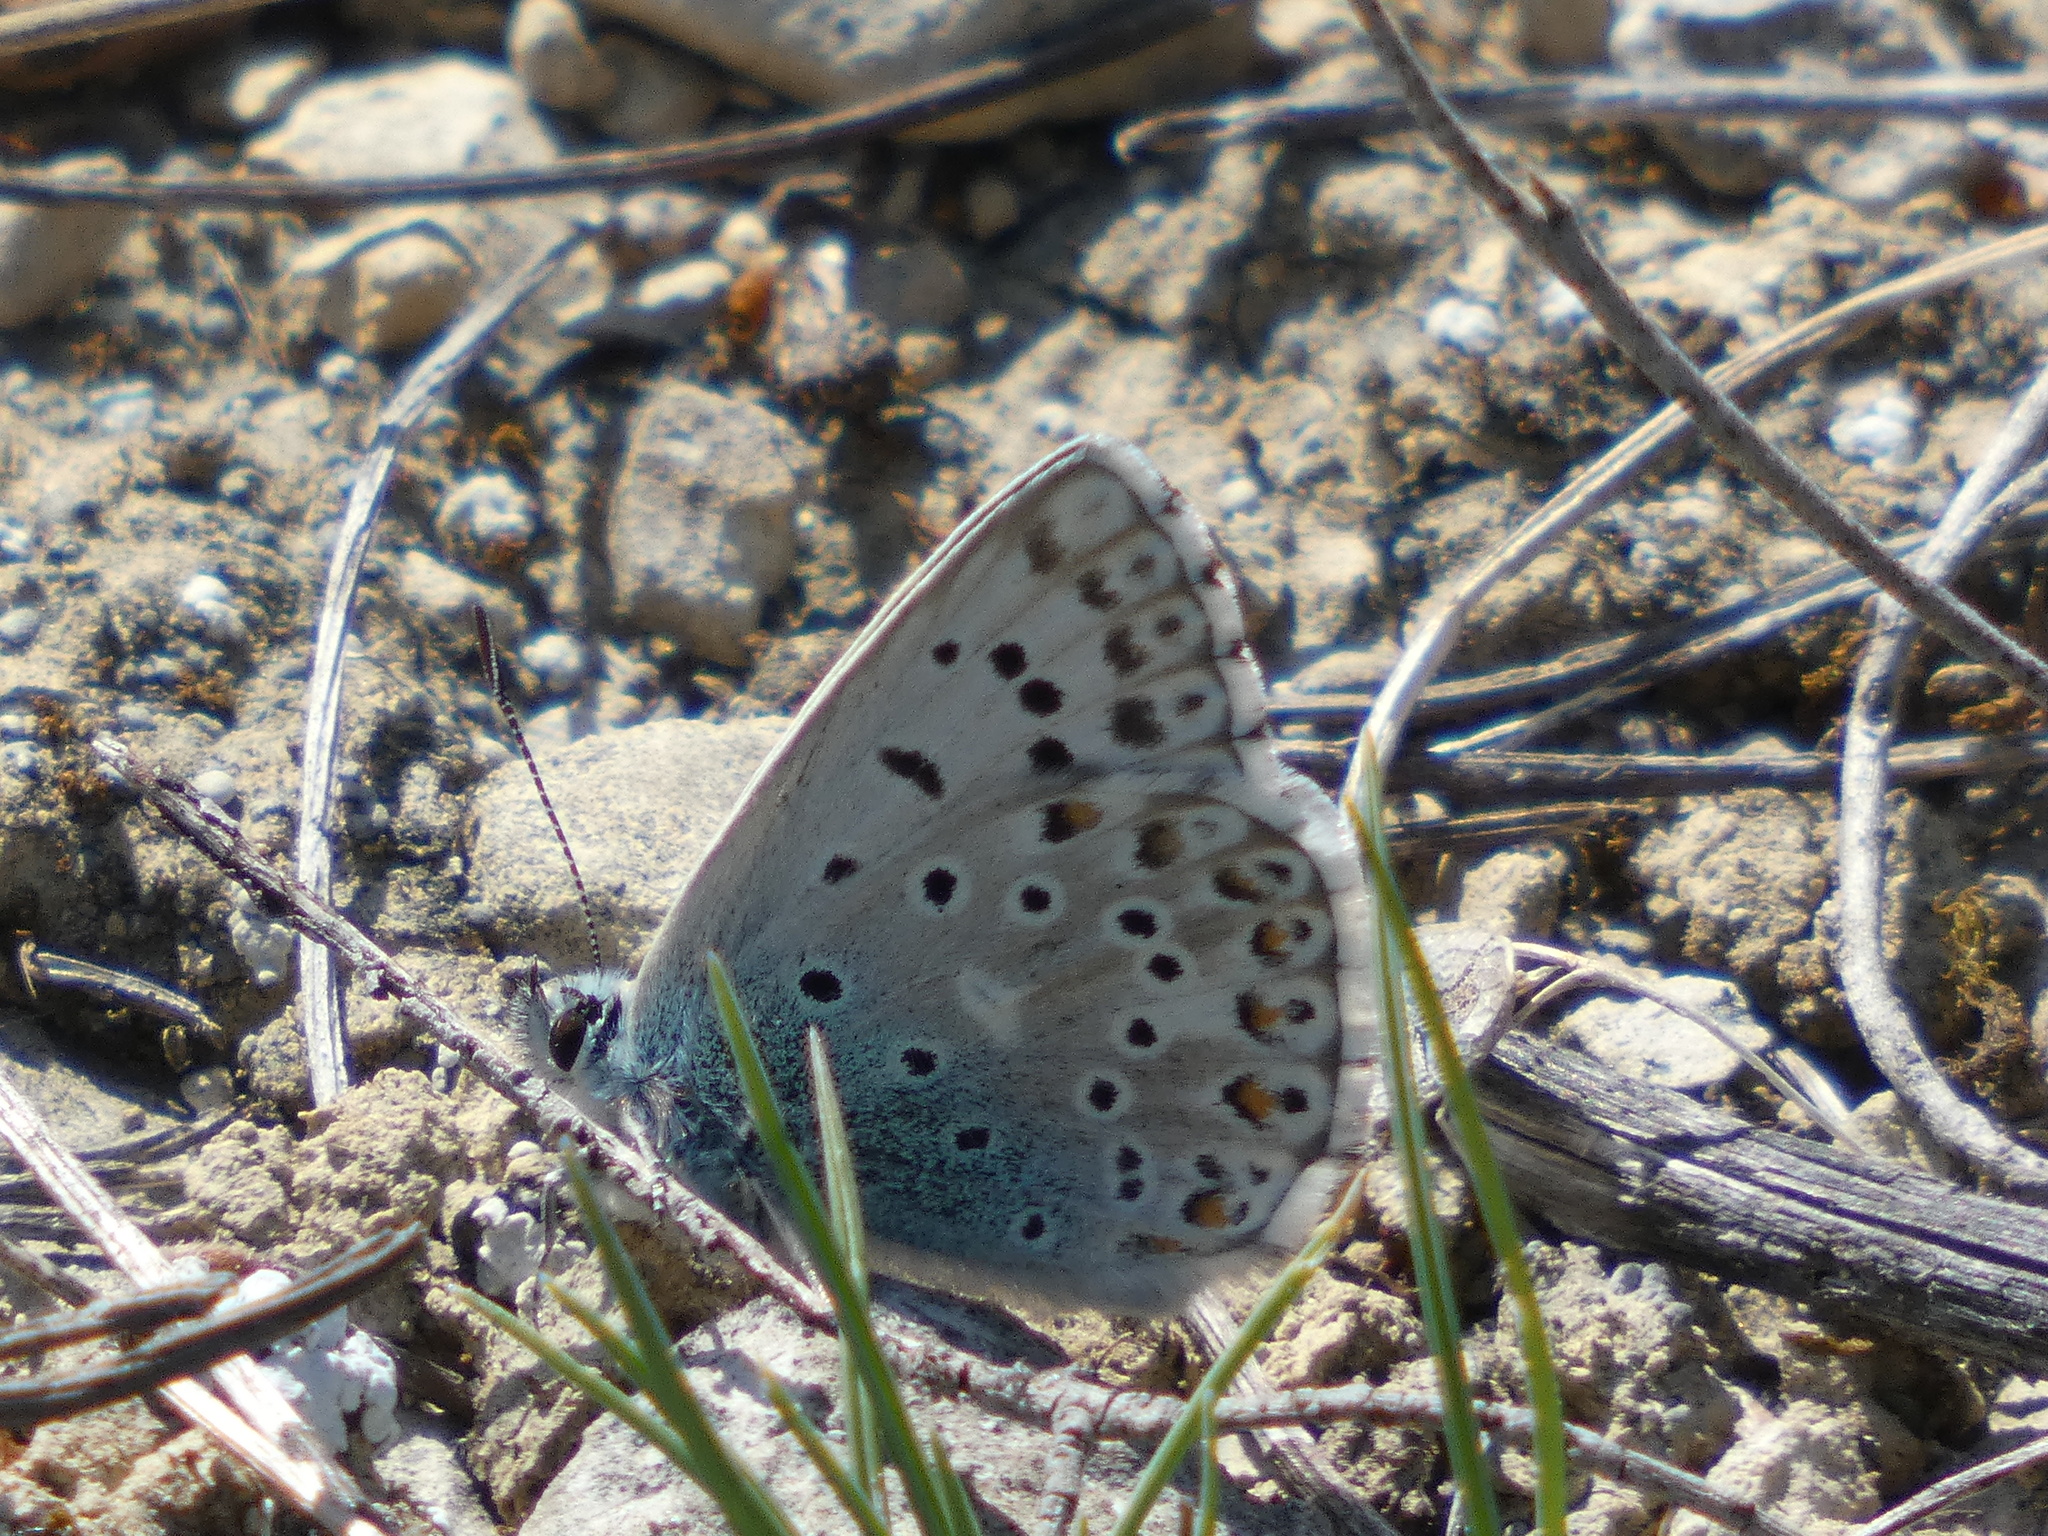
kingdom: Animalia
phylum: Arthropoda
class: Insecta
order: Lepidoptera
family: Lycaenidae
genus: Lysandra
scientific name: Lysandra hispana
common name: Provence chalkhill blue
